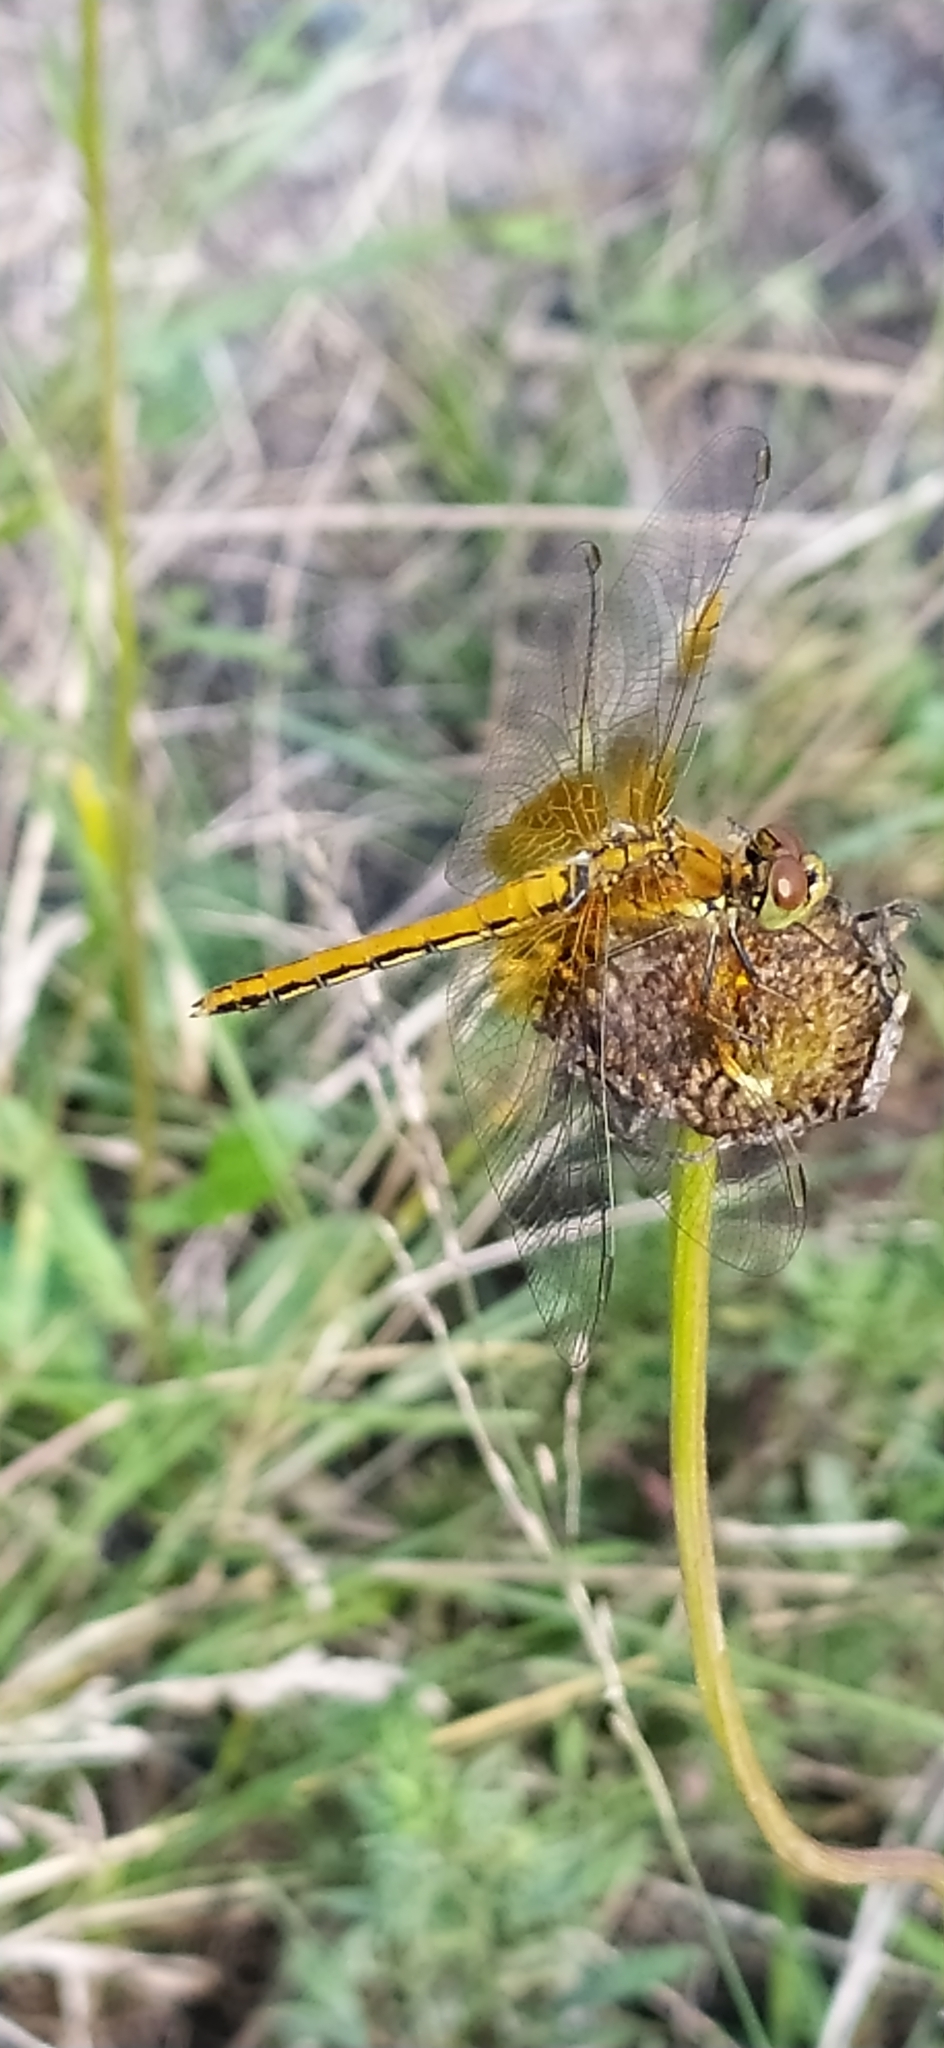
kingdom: Animalia
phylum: Arthropoda
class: Insecta
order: Odonata
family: Libellulidae
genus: Sympetrum
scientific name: Sympetrum flaveolum
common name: Yellow-winged darter
